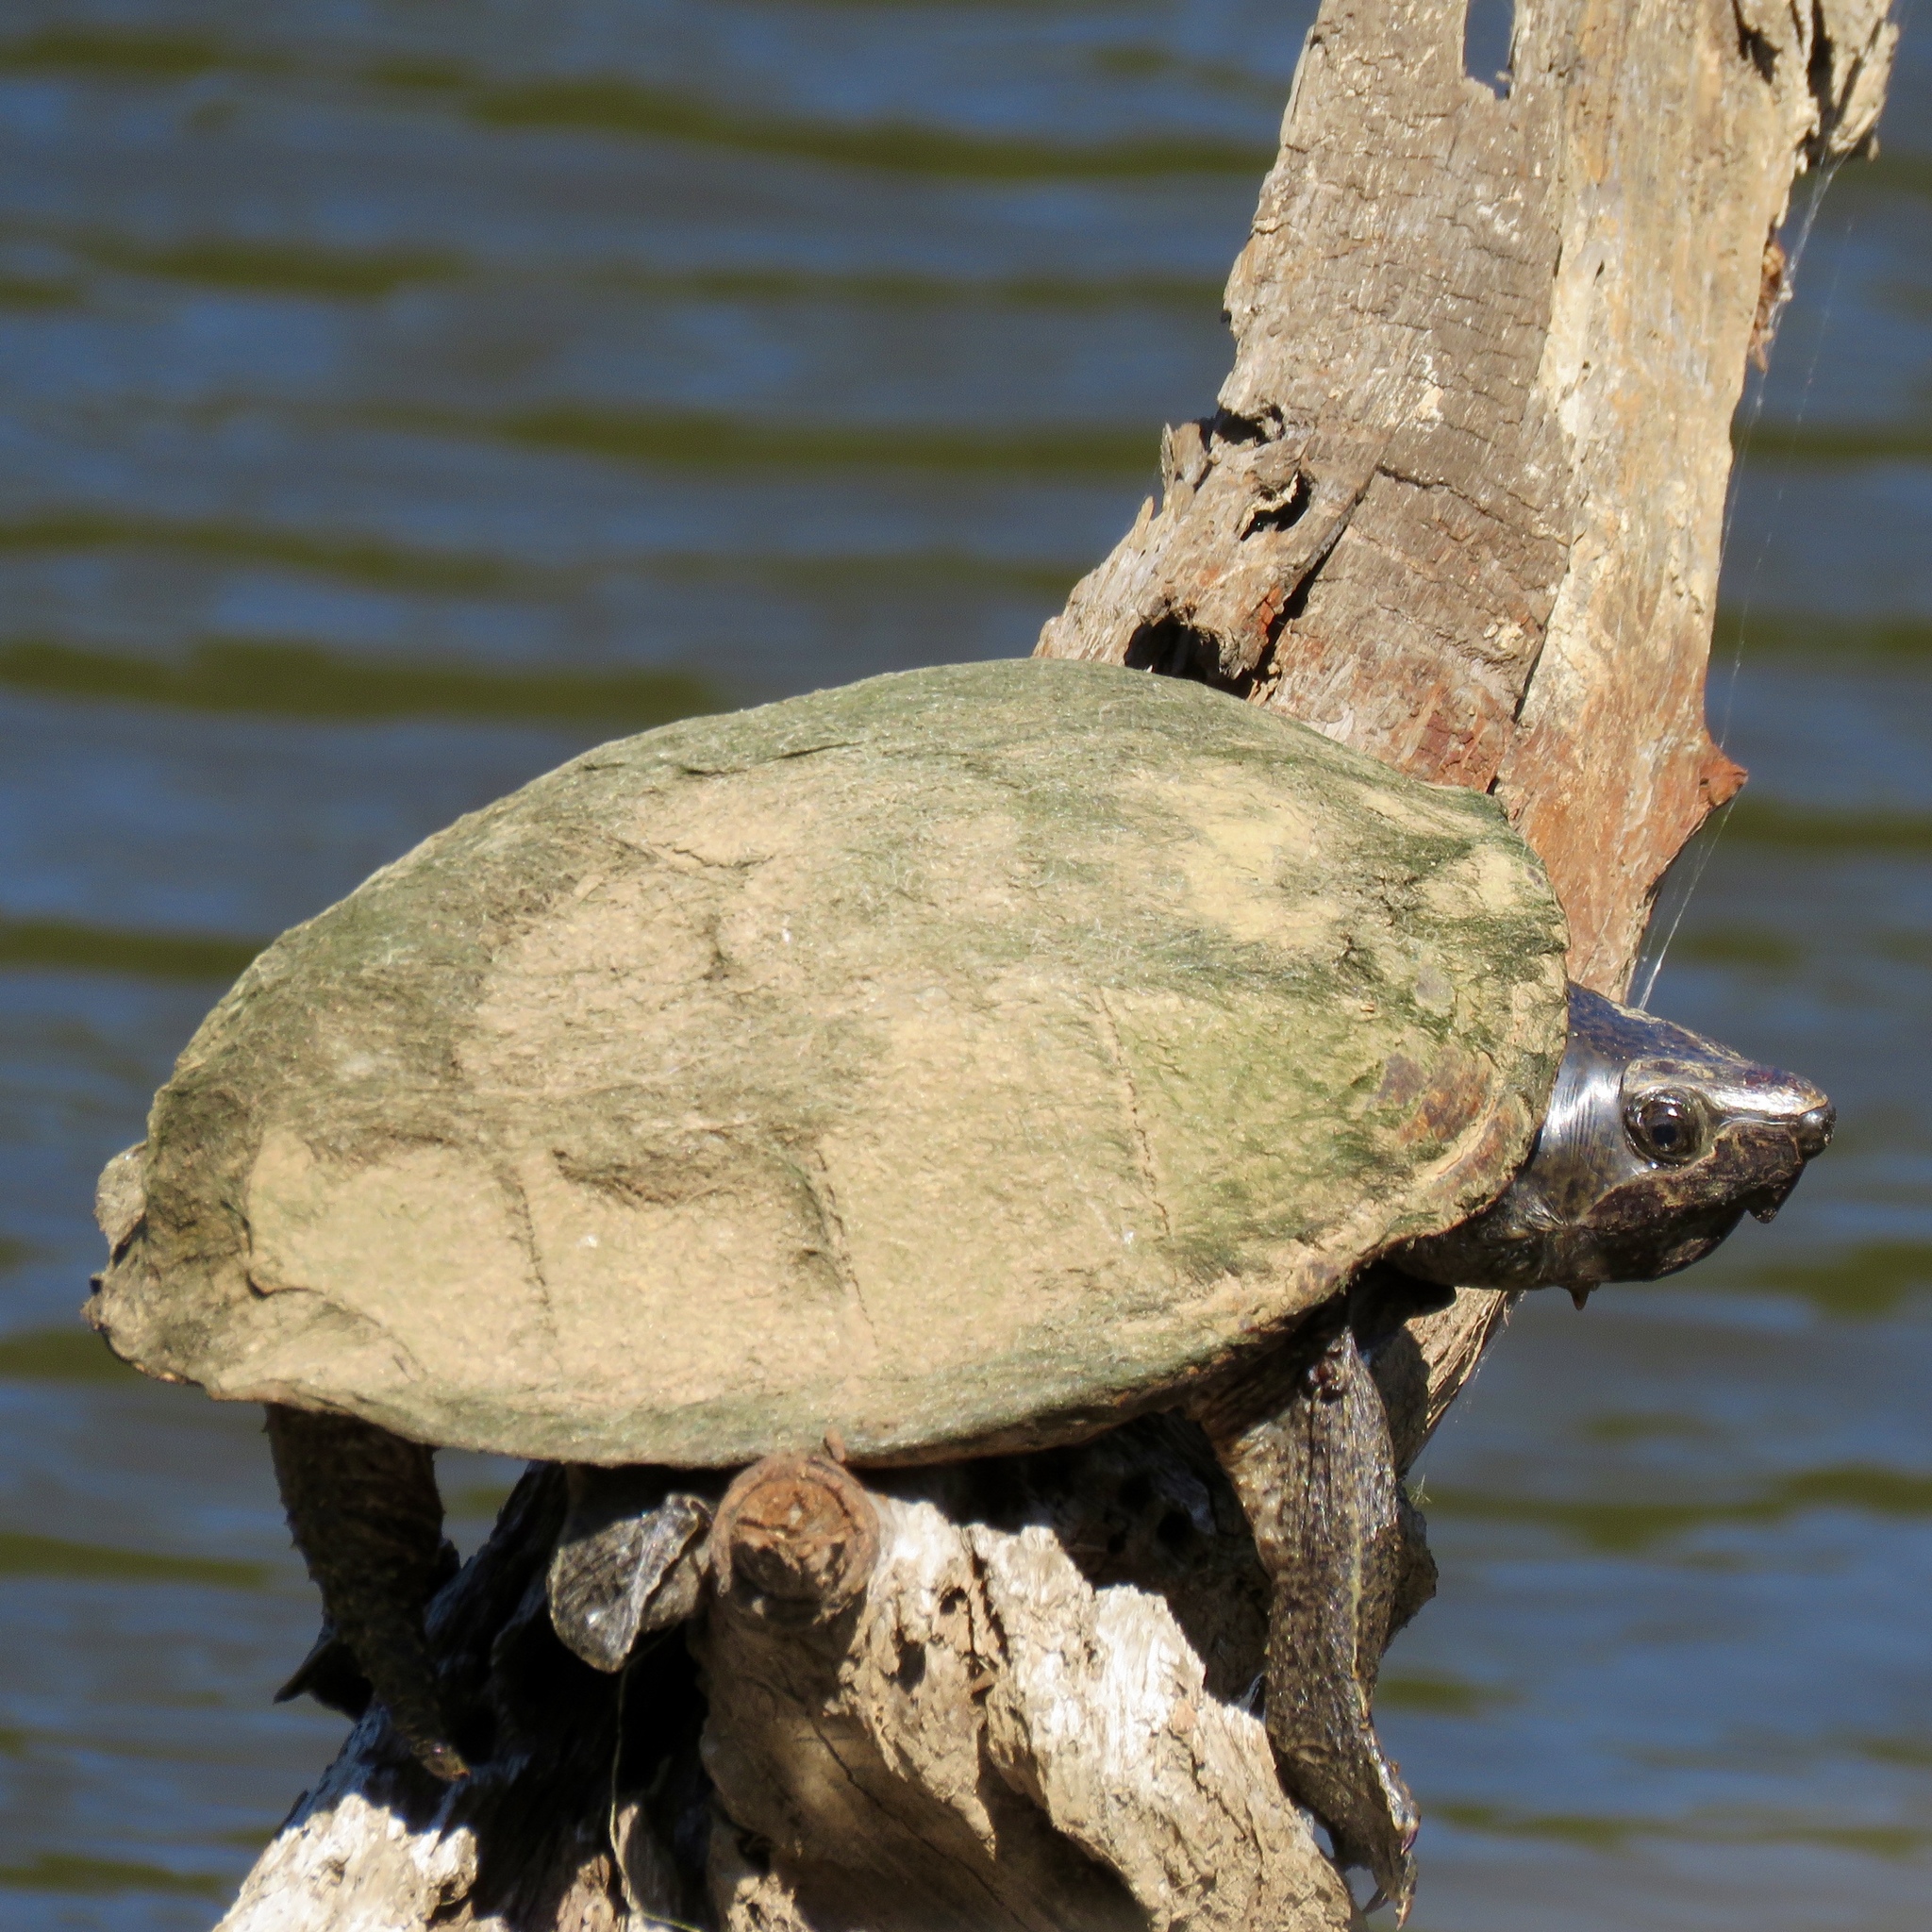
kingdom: Animalia
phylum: Chordata
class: Testudines
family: Kinosternidae
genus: Sternotherus
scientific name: Sternotherus carinatus
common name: Razor-backed musk turtle
